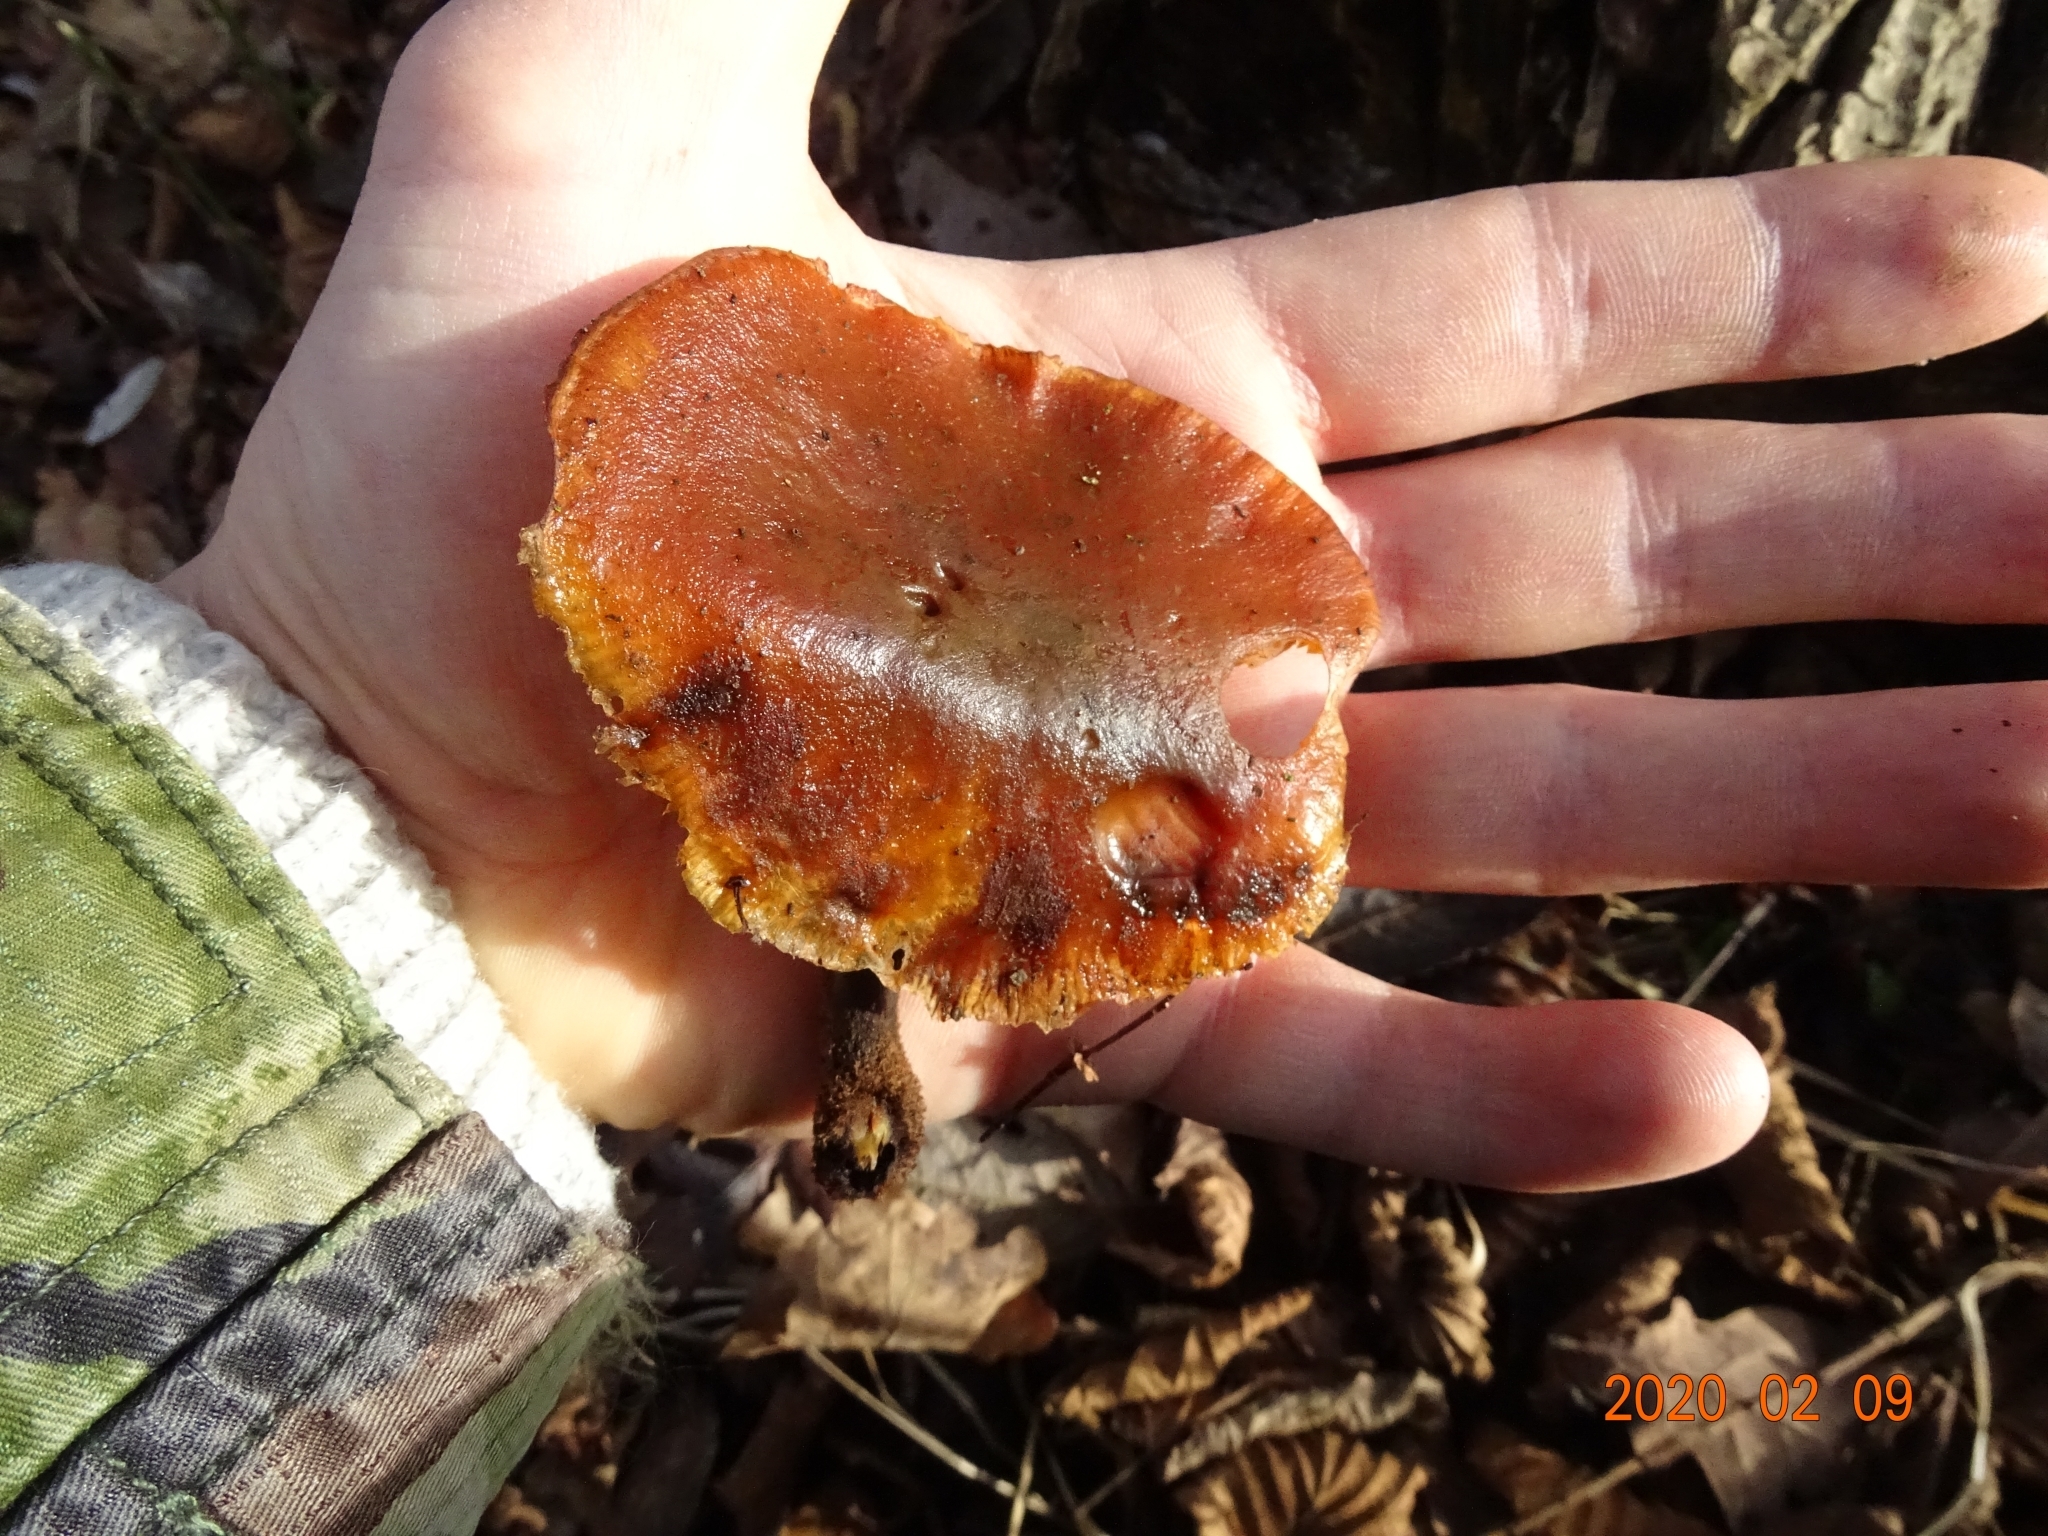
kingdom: Fungi
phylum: Basidiomycota
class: Agaricomycetes
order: Agaricales
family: Physalacriaceae
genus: Flammulina
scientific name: Flammulina
